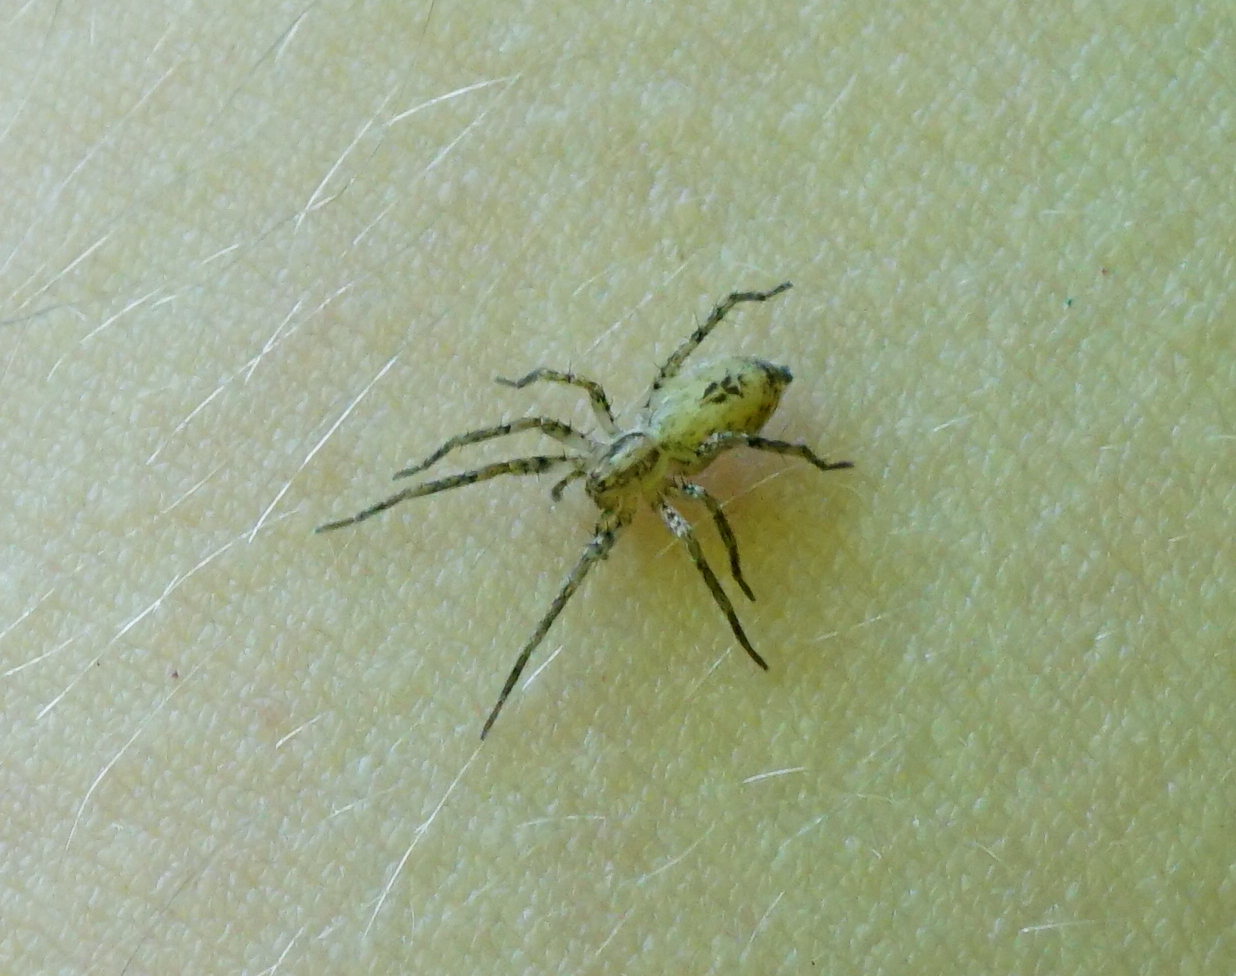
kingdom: Animalia
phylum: Arthropoda
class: Arachnida
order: Araneae
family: Anyphaenidae
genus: Anyphaena
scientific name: Anyphaena accentuata
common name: Buzzing spider
